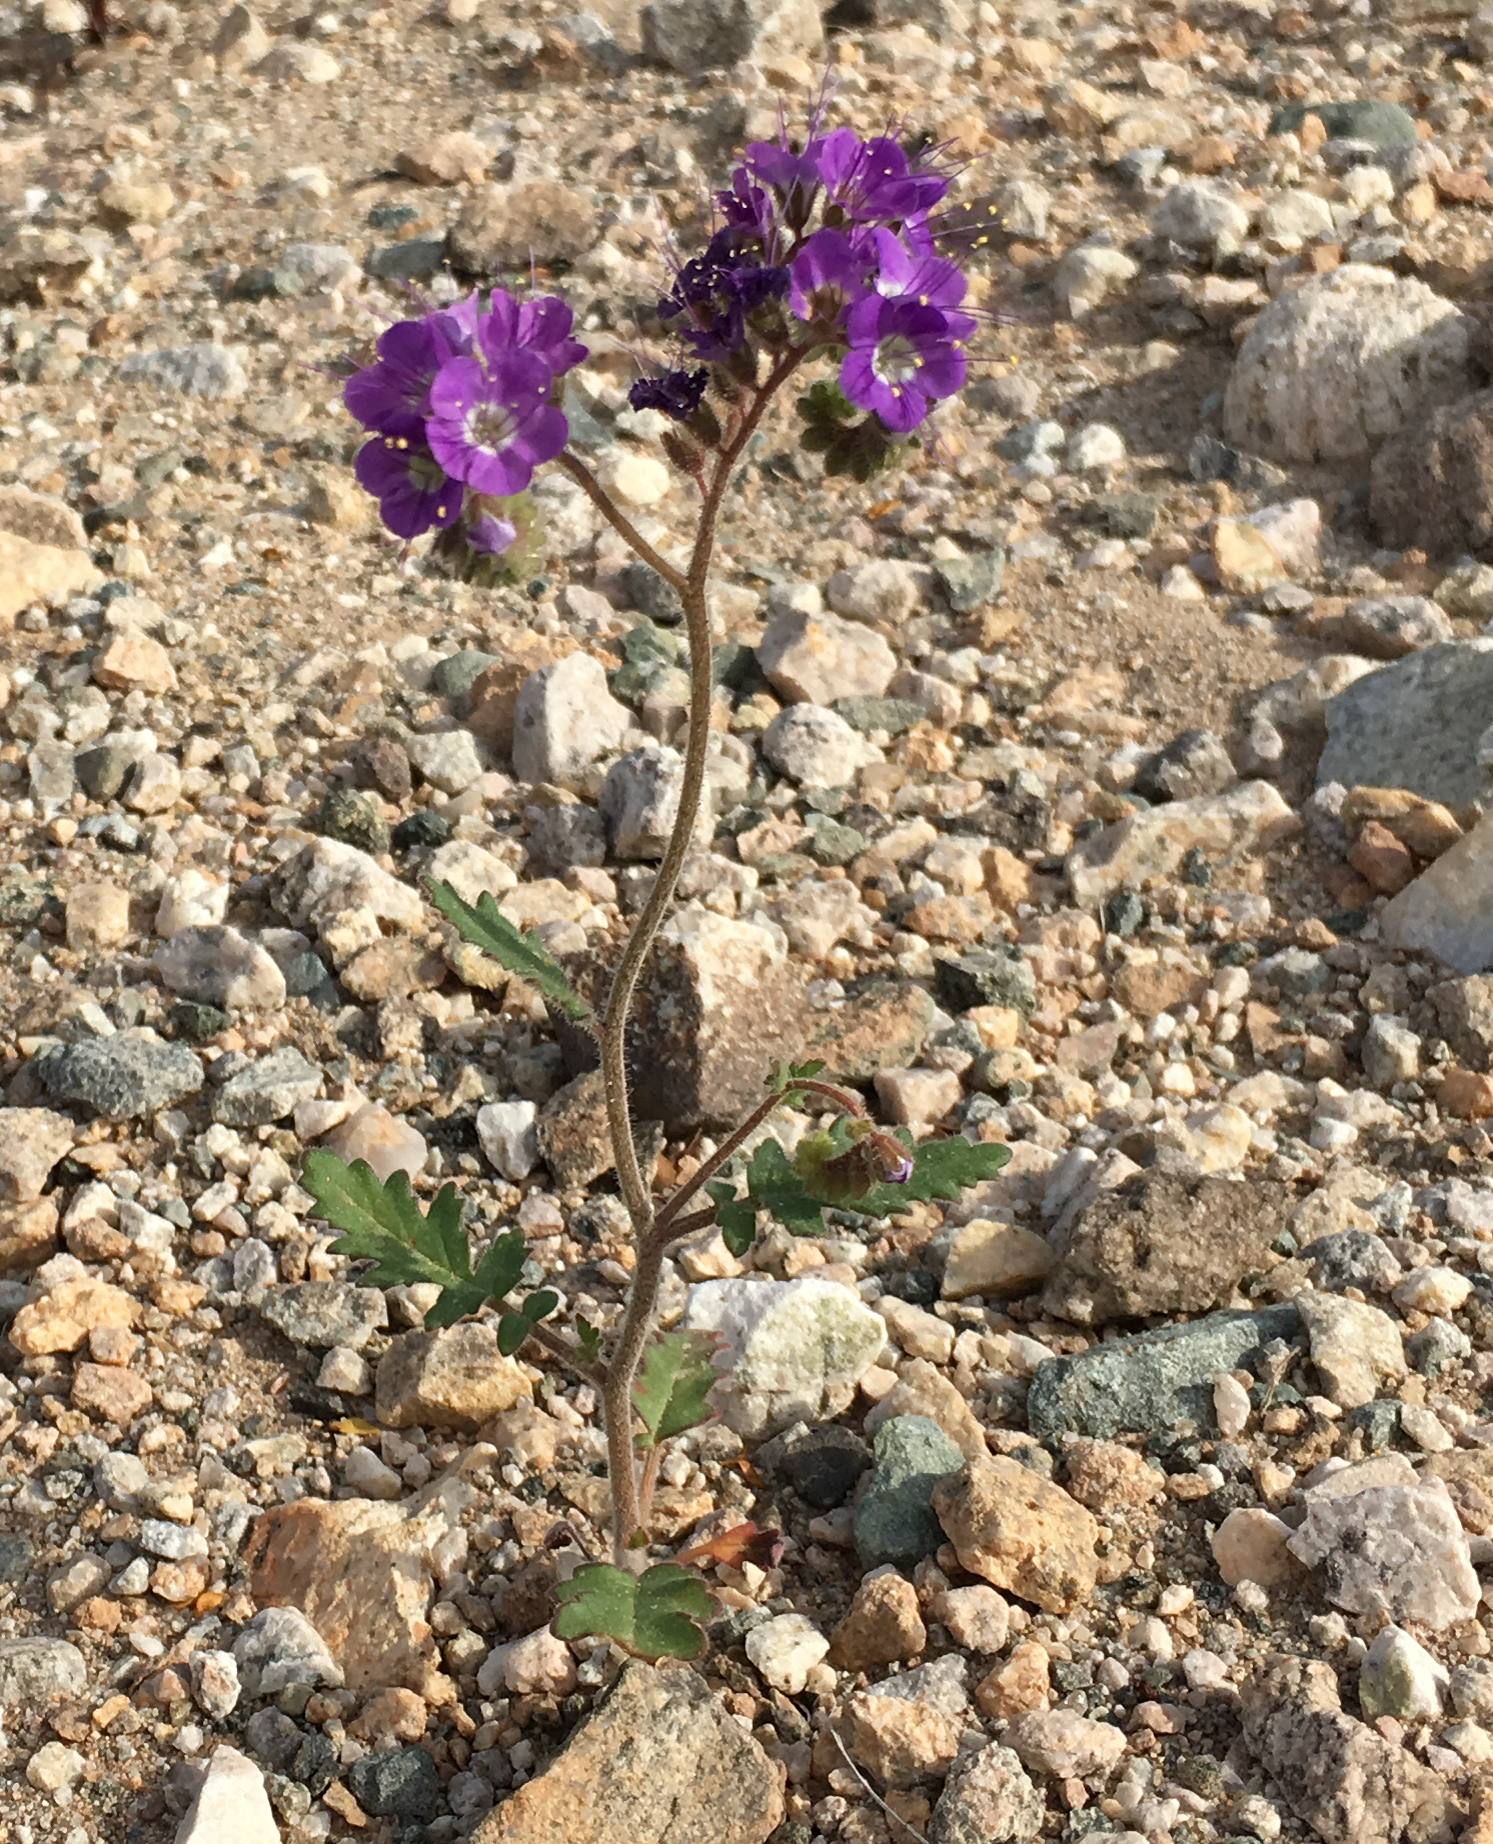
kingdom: Plantae
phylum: Tracheophyta
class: Magnoliopsida
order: Boraginales
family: Hydrophyllaceae
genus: Phacelia
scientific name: Phacelia crenulata
